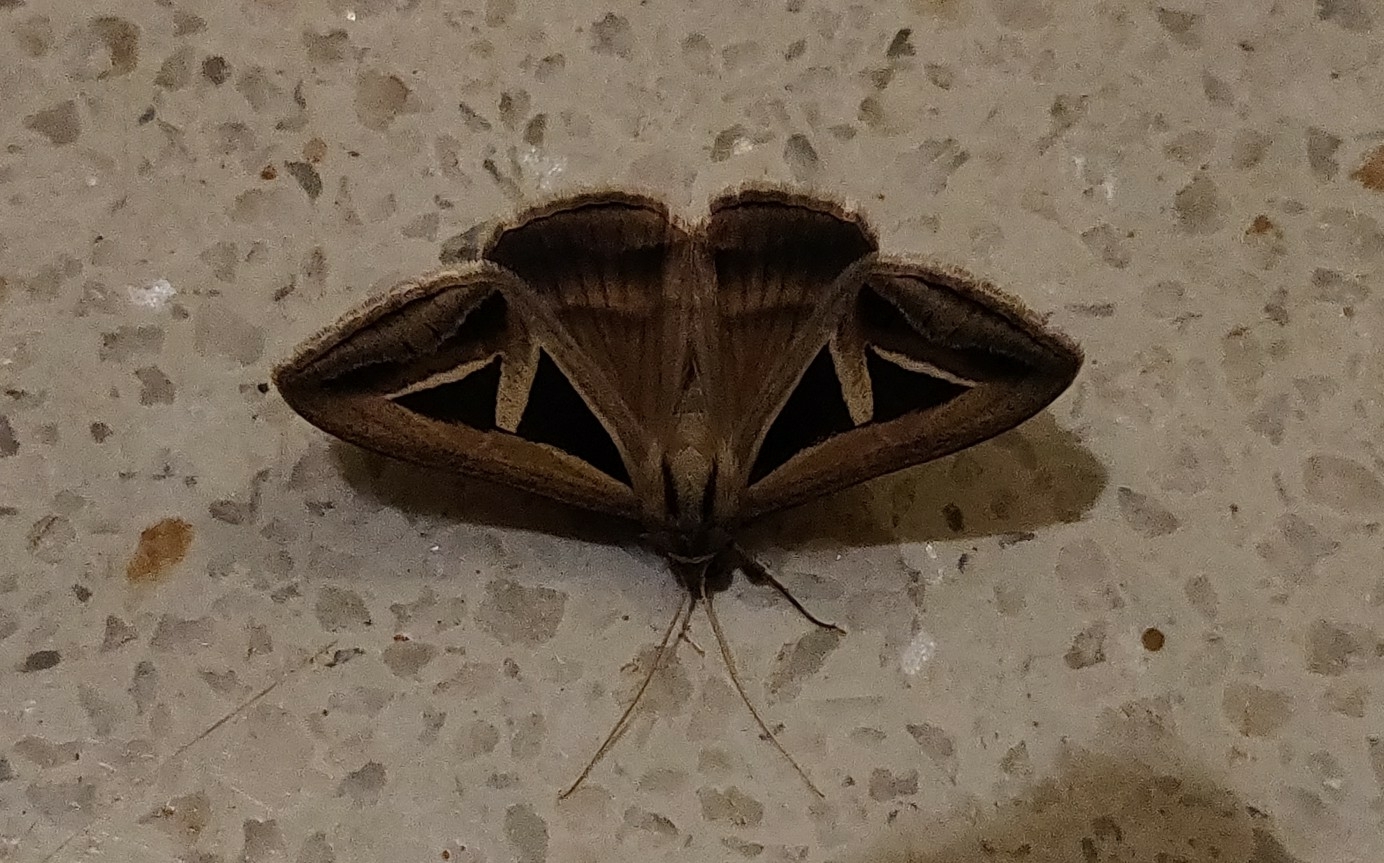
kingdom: Animalia
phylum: Arthropoda
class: Insecta
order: Lepidoptera
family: Erebidae
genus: Trigonodes
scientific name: Trigonodes hyppasia
